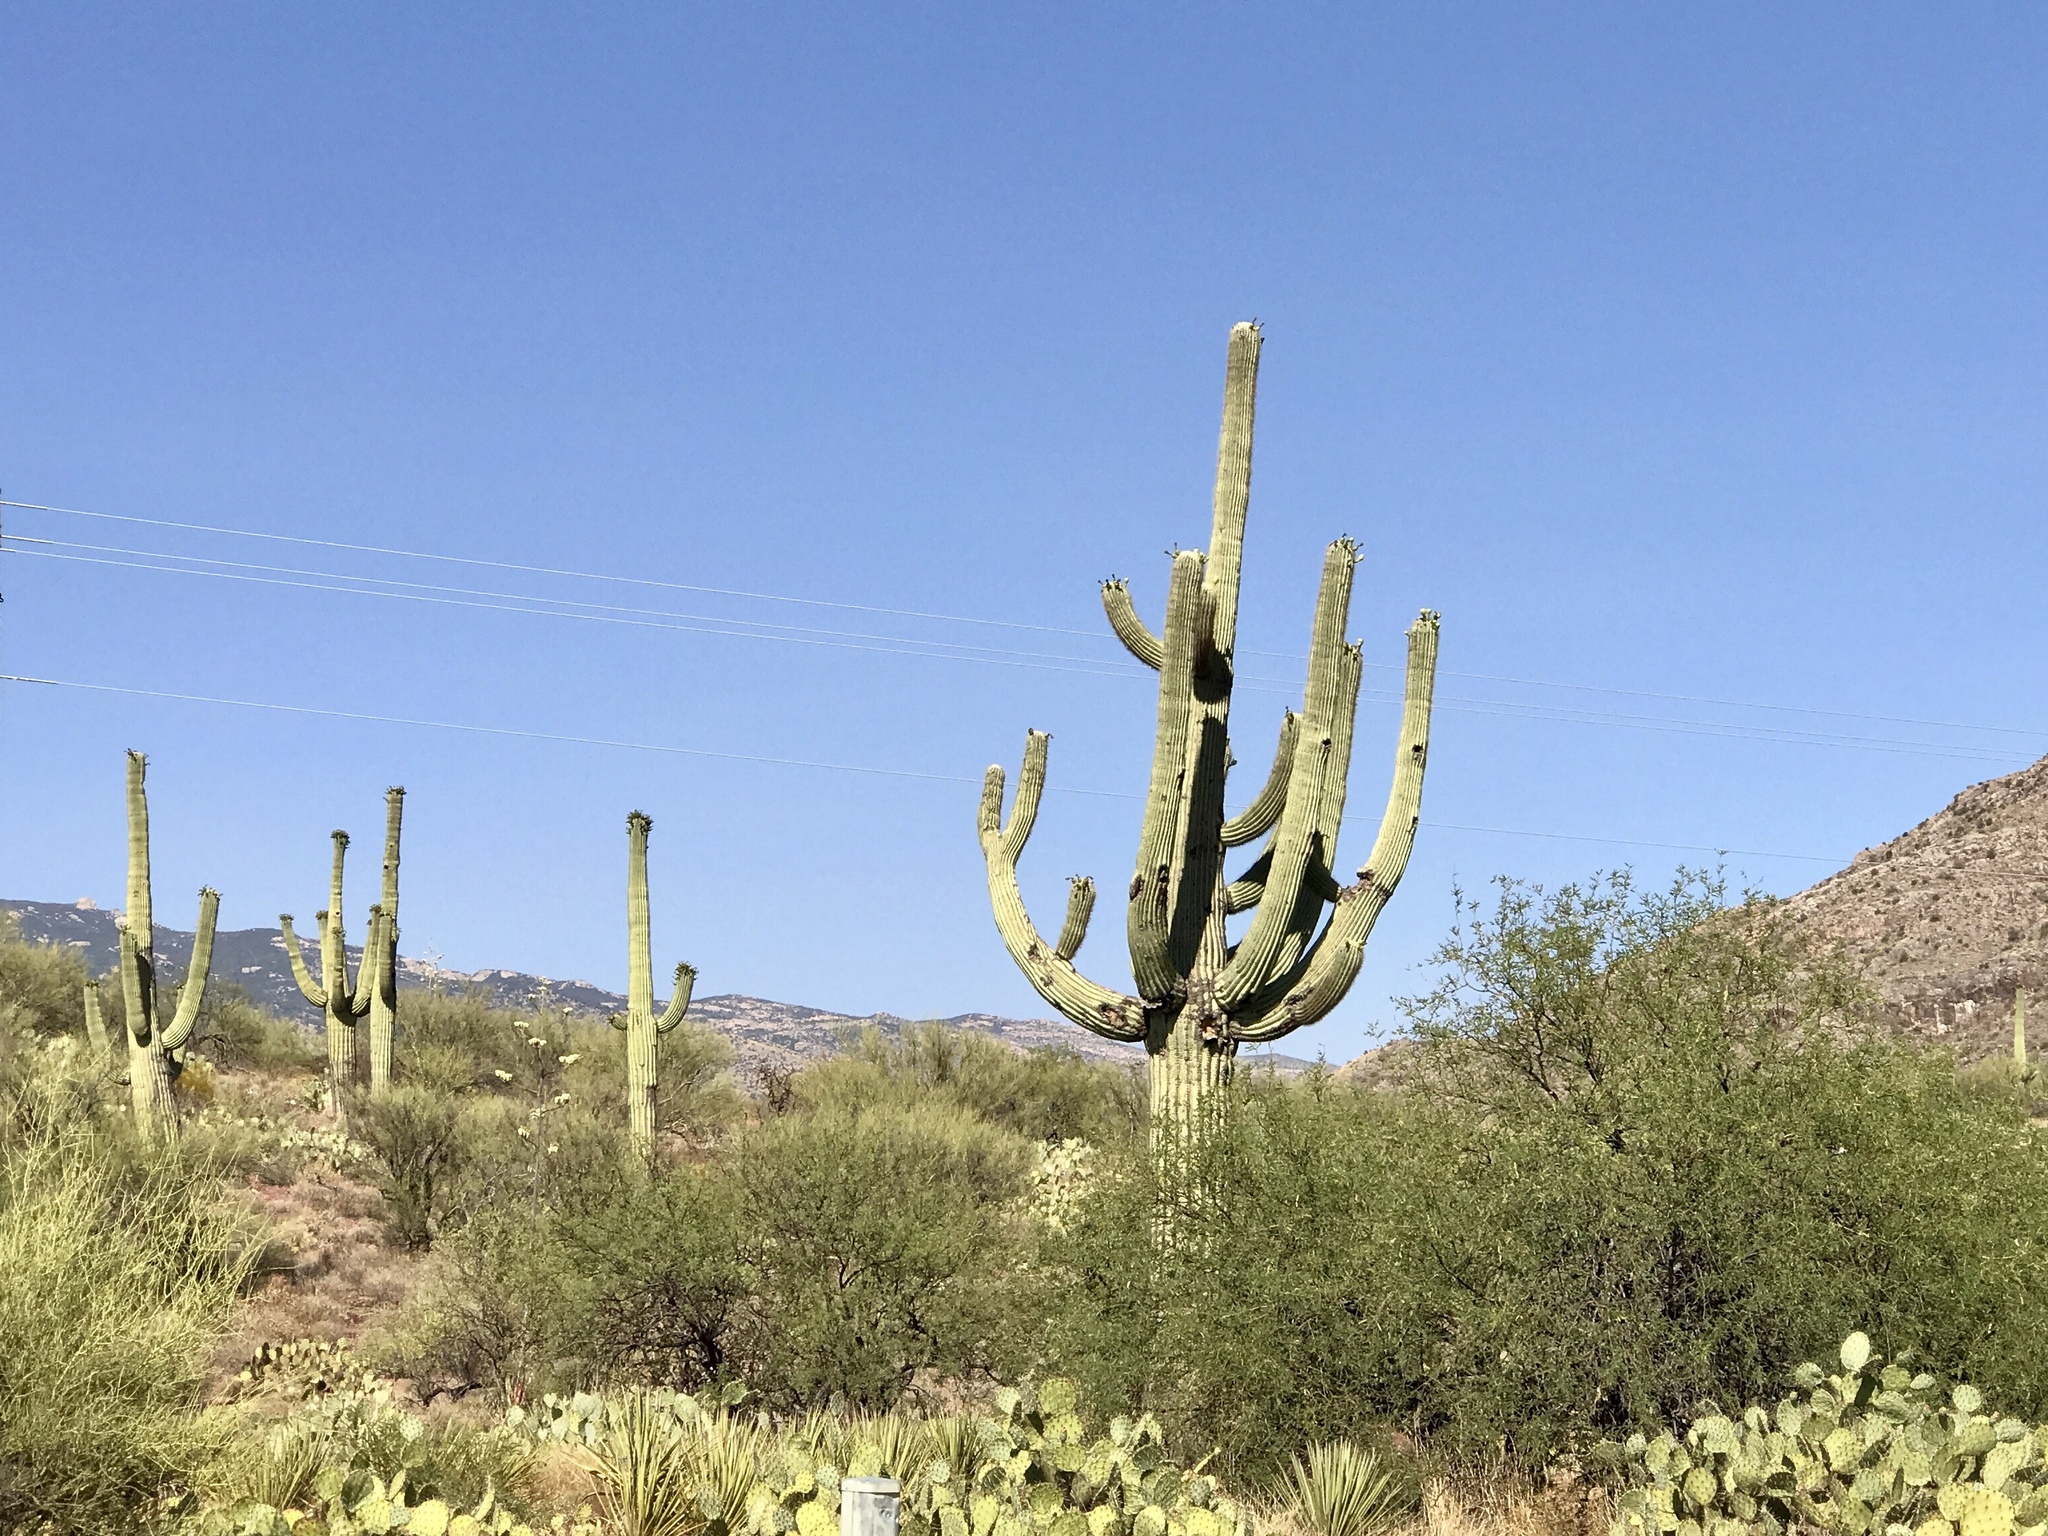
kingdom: Plantae
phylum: Tracheophyta
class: Magnoliopsida
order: Caryophyllales
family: Cactaceae
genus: Carnegiea
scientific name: Carnegiea gigantea
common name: Saguaro
